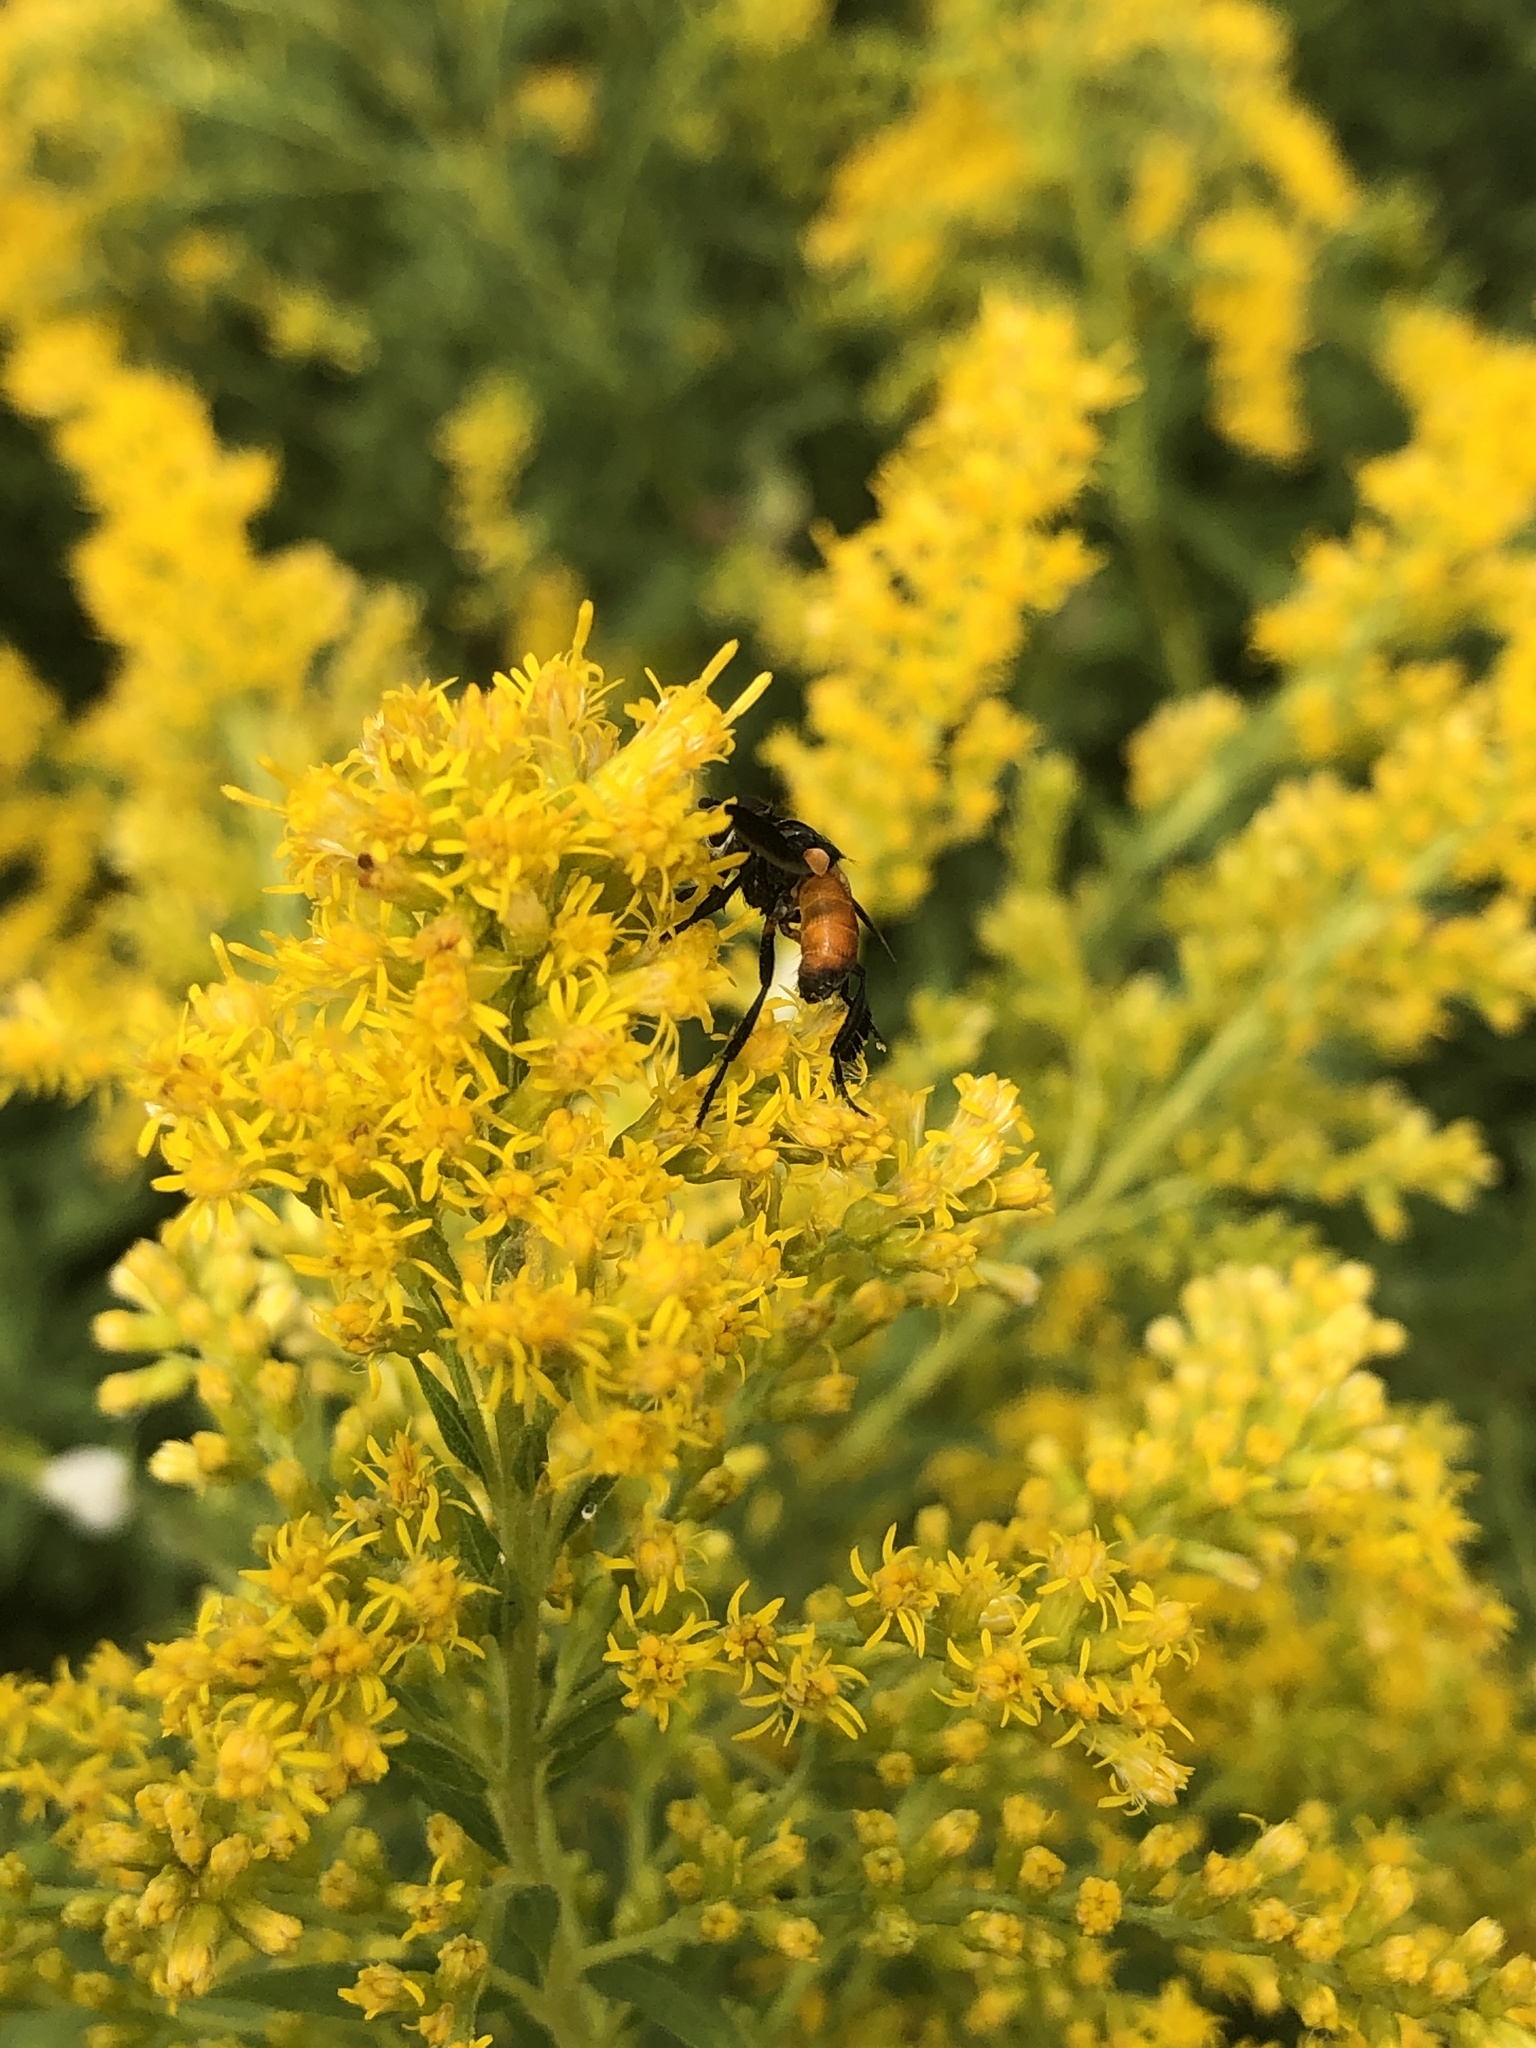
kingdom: Animalia
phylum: Arthropoda
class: Insecta
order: Diptera
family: Tachinidae
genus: Trichopoda
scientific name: Trichopoda pennipes
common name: Tachinid fly
